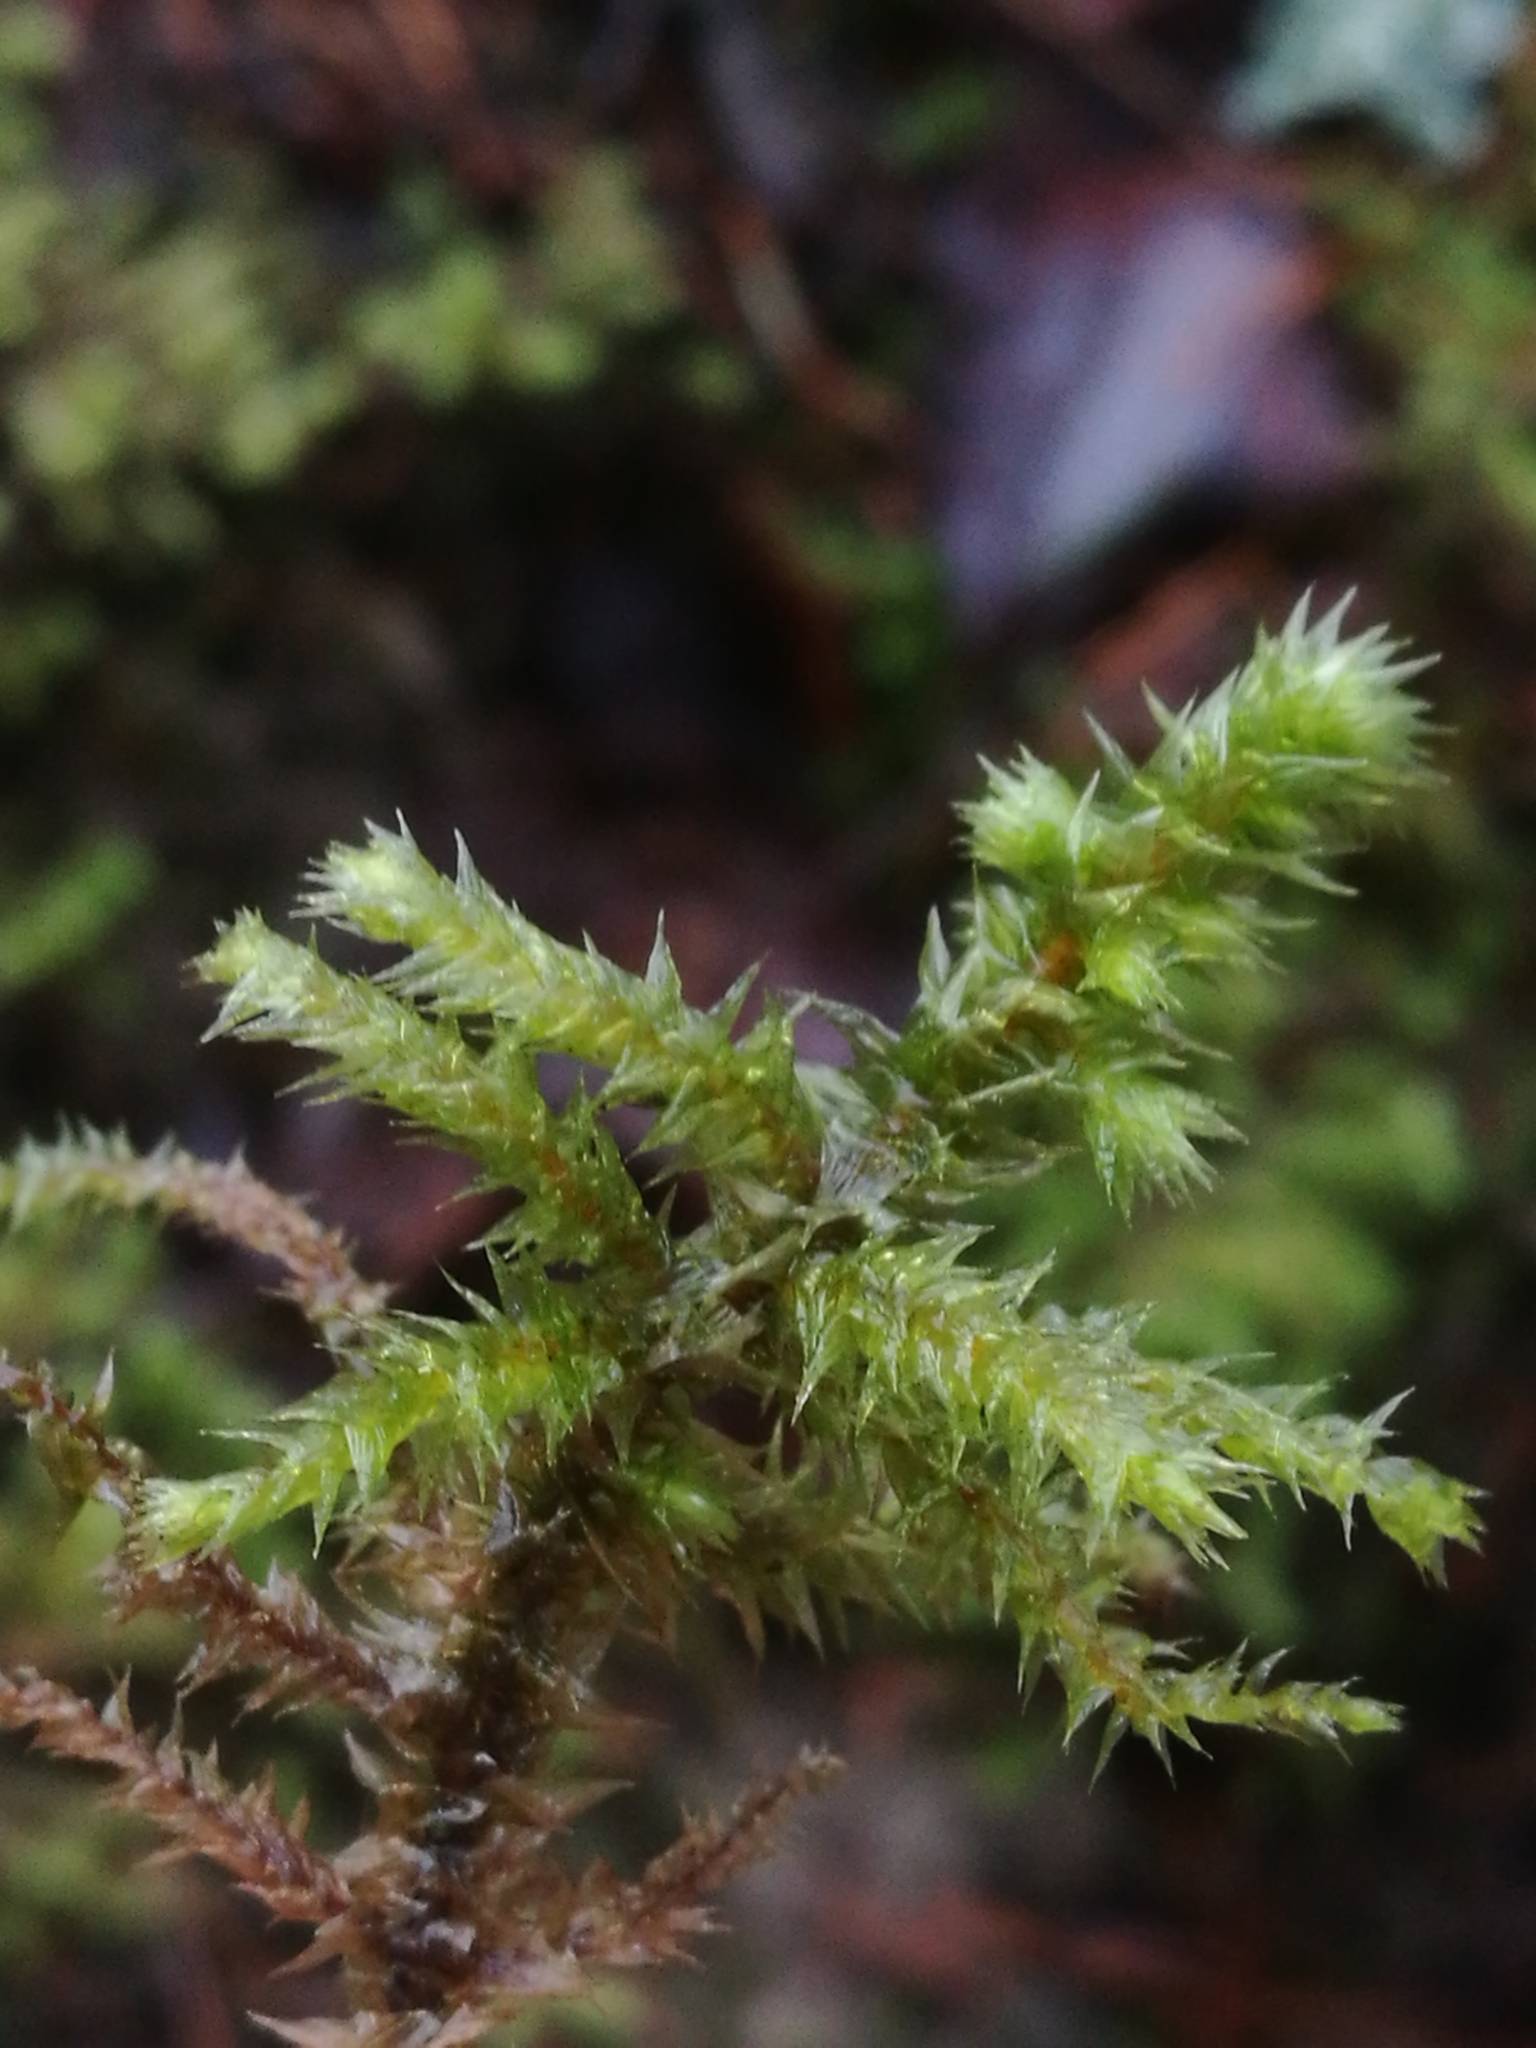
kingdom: Plantae
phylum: Bryophyta
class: Bryopsida
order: Hypnales
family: Hylocomiaceae
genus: Hylocomiadelphus
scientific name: Hylocomiadelphus triquetrus
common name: Rough goose neck moss
